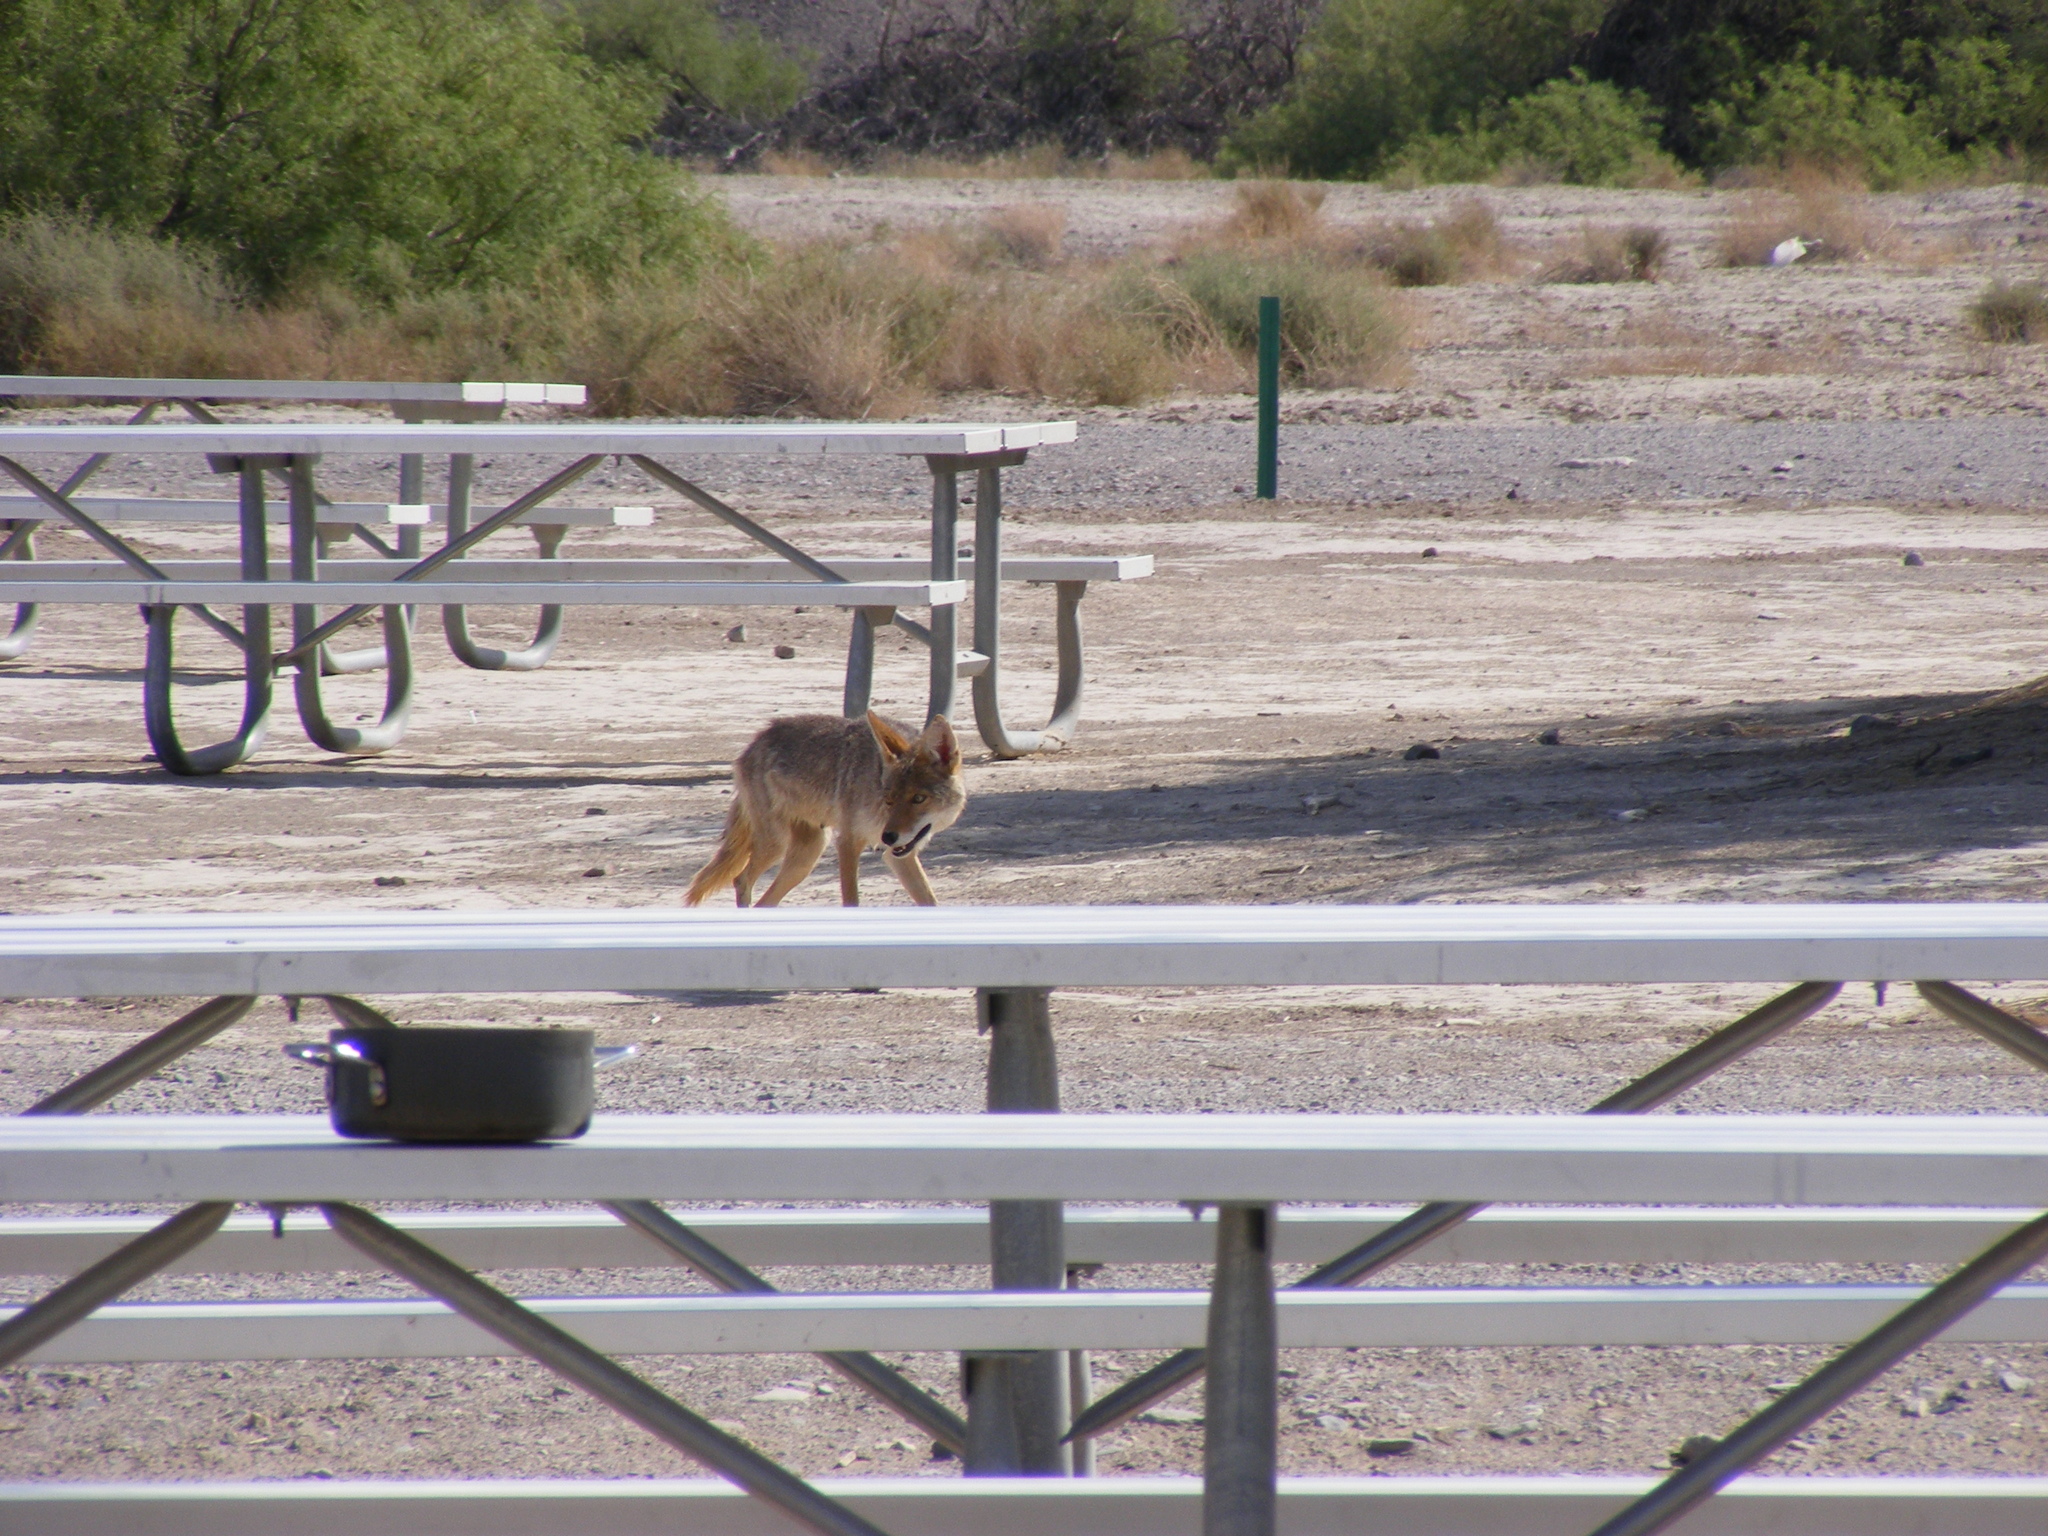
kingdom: Animalia
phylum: Chordata
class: Mammalia
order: Carnivora
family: Canidae
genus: Canis
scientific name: Canis latrans
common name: Coyote
